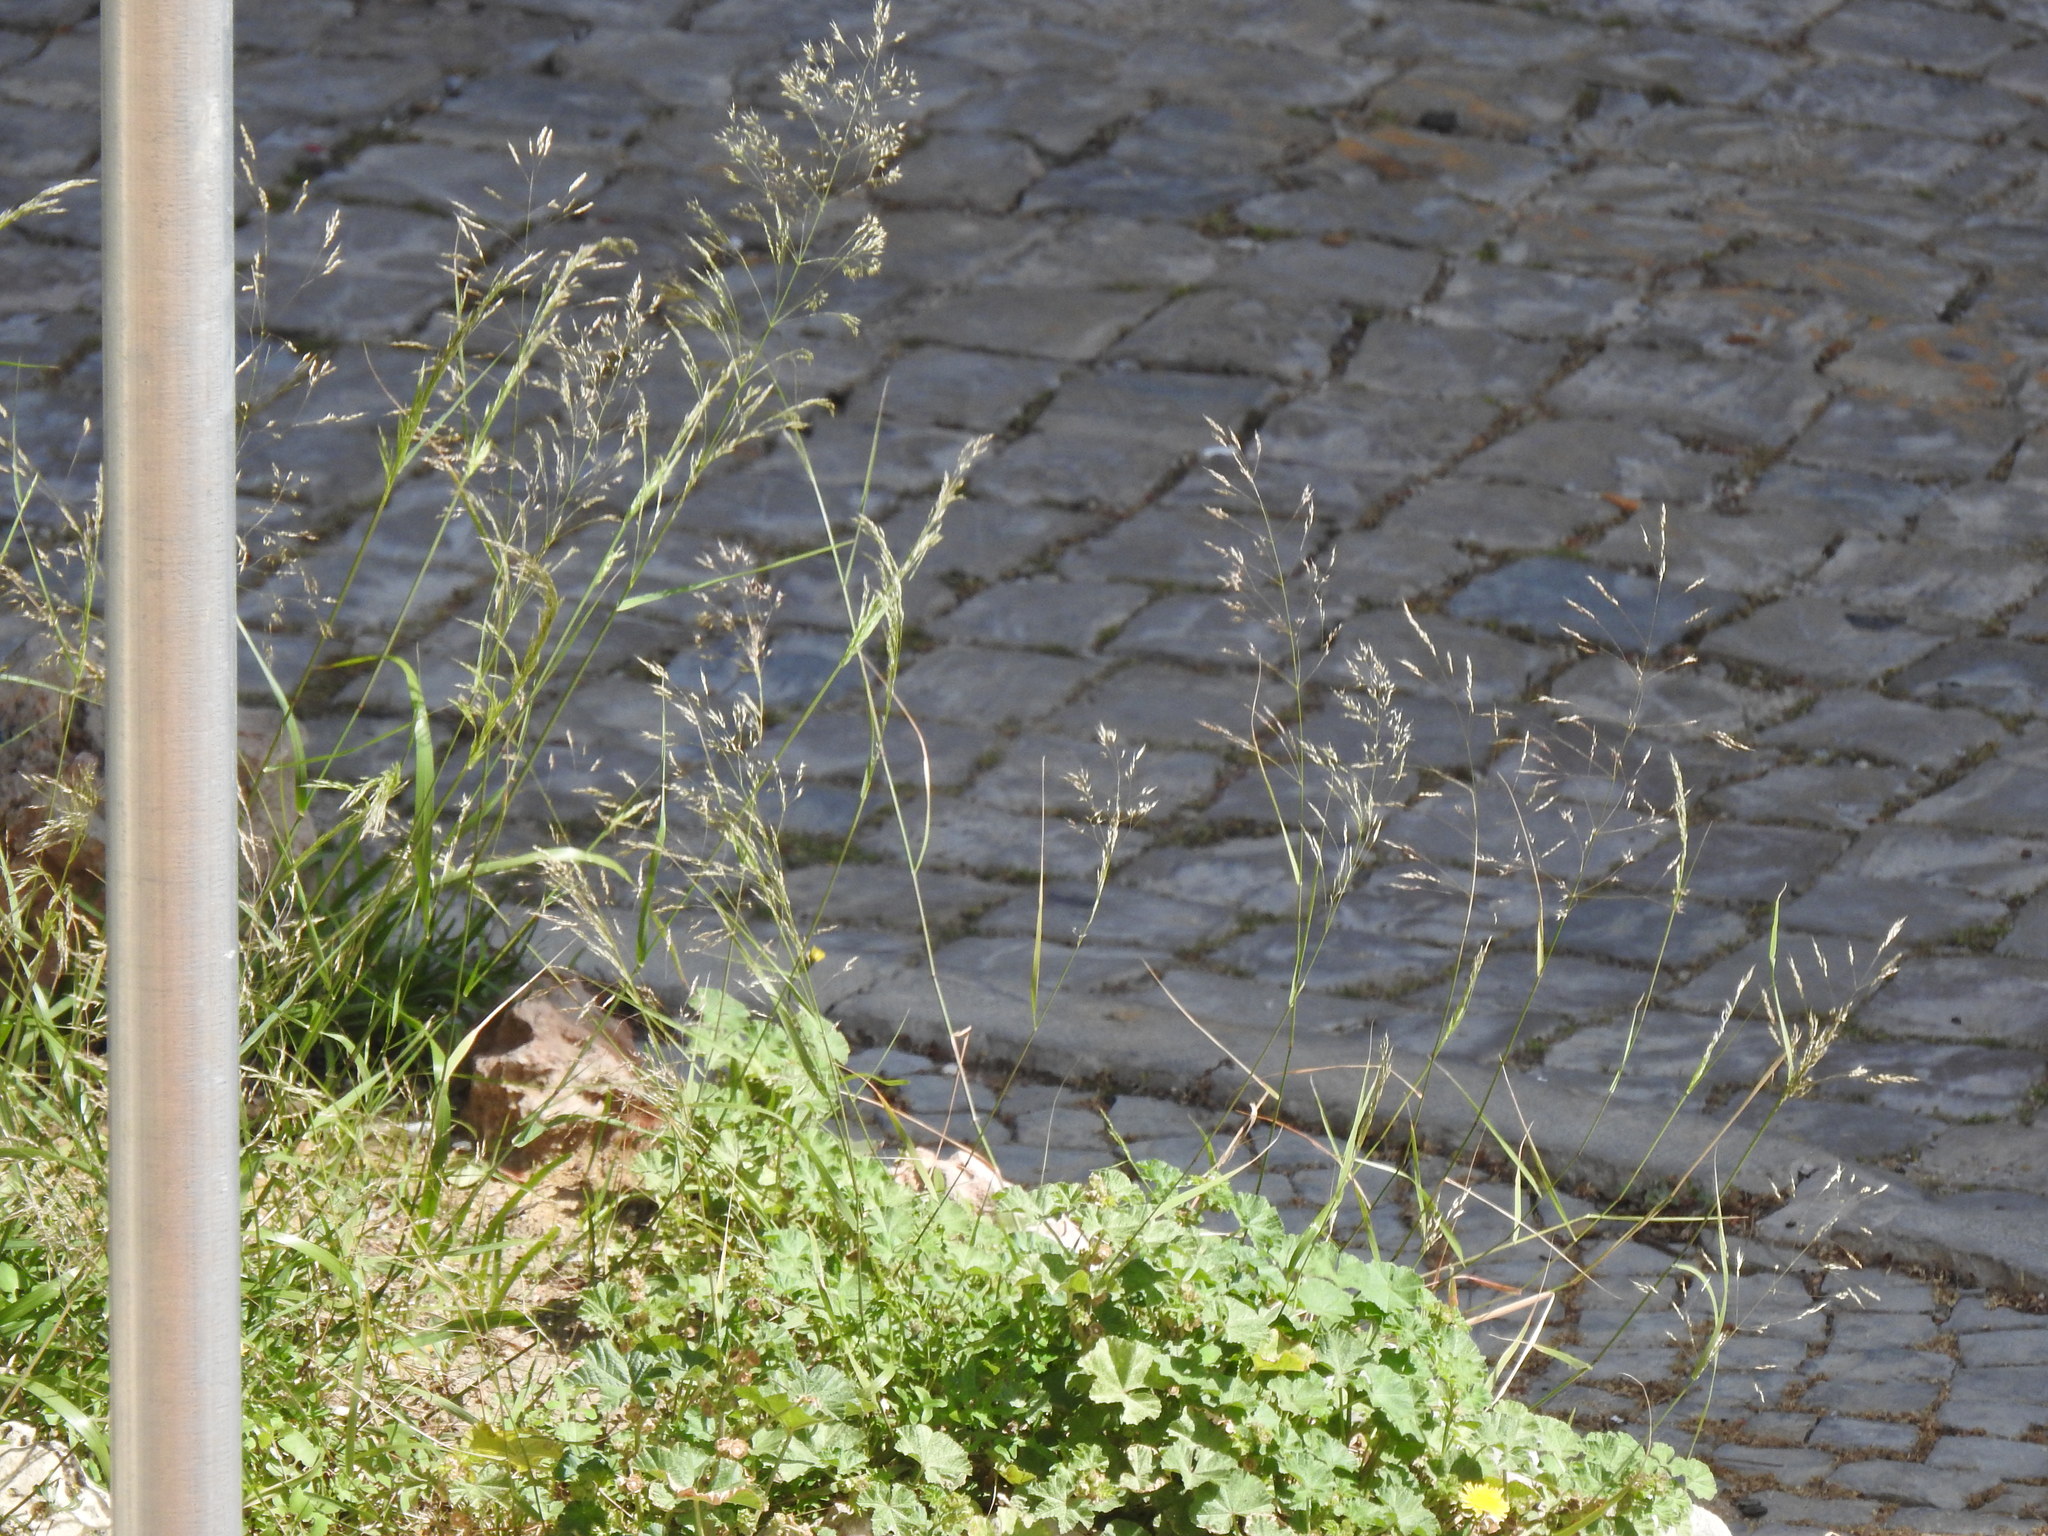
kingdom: Plantae
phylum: Tracheophyta
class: Liliopsida
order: Poales
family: Poaceae
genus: Oloptum
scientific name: Oloptum miliaceum
